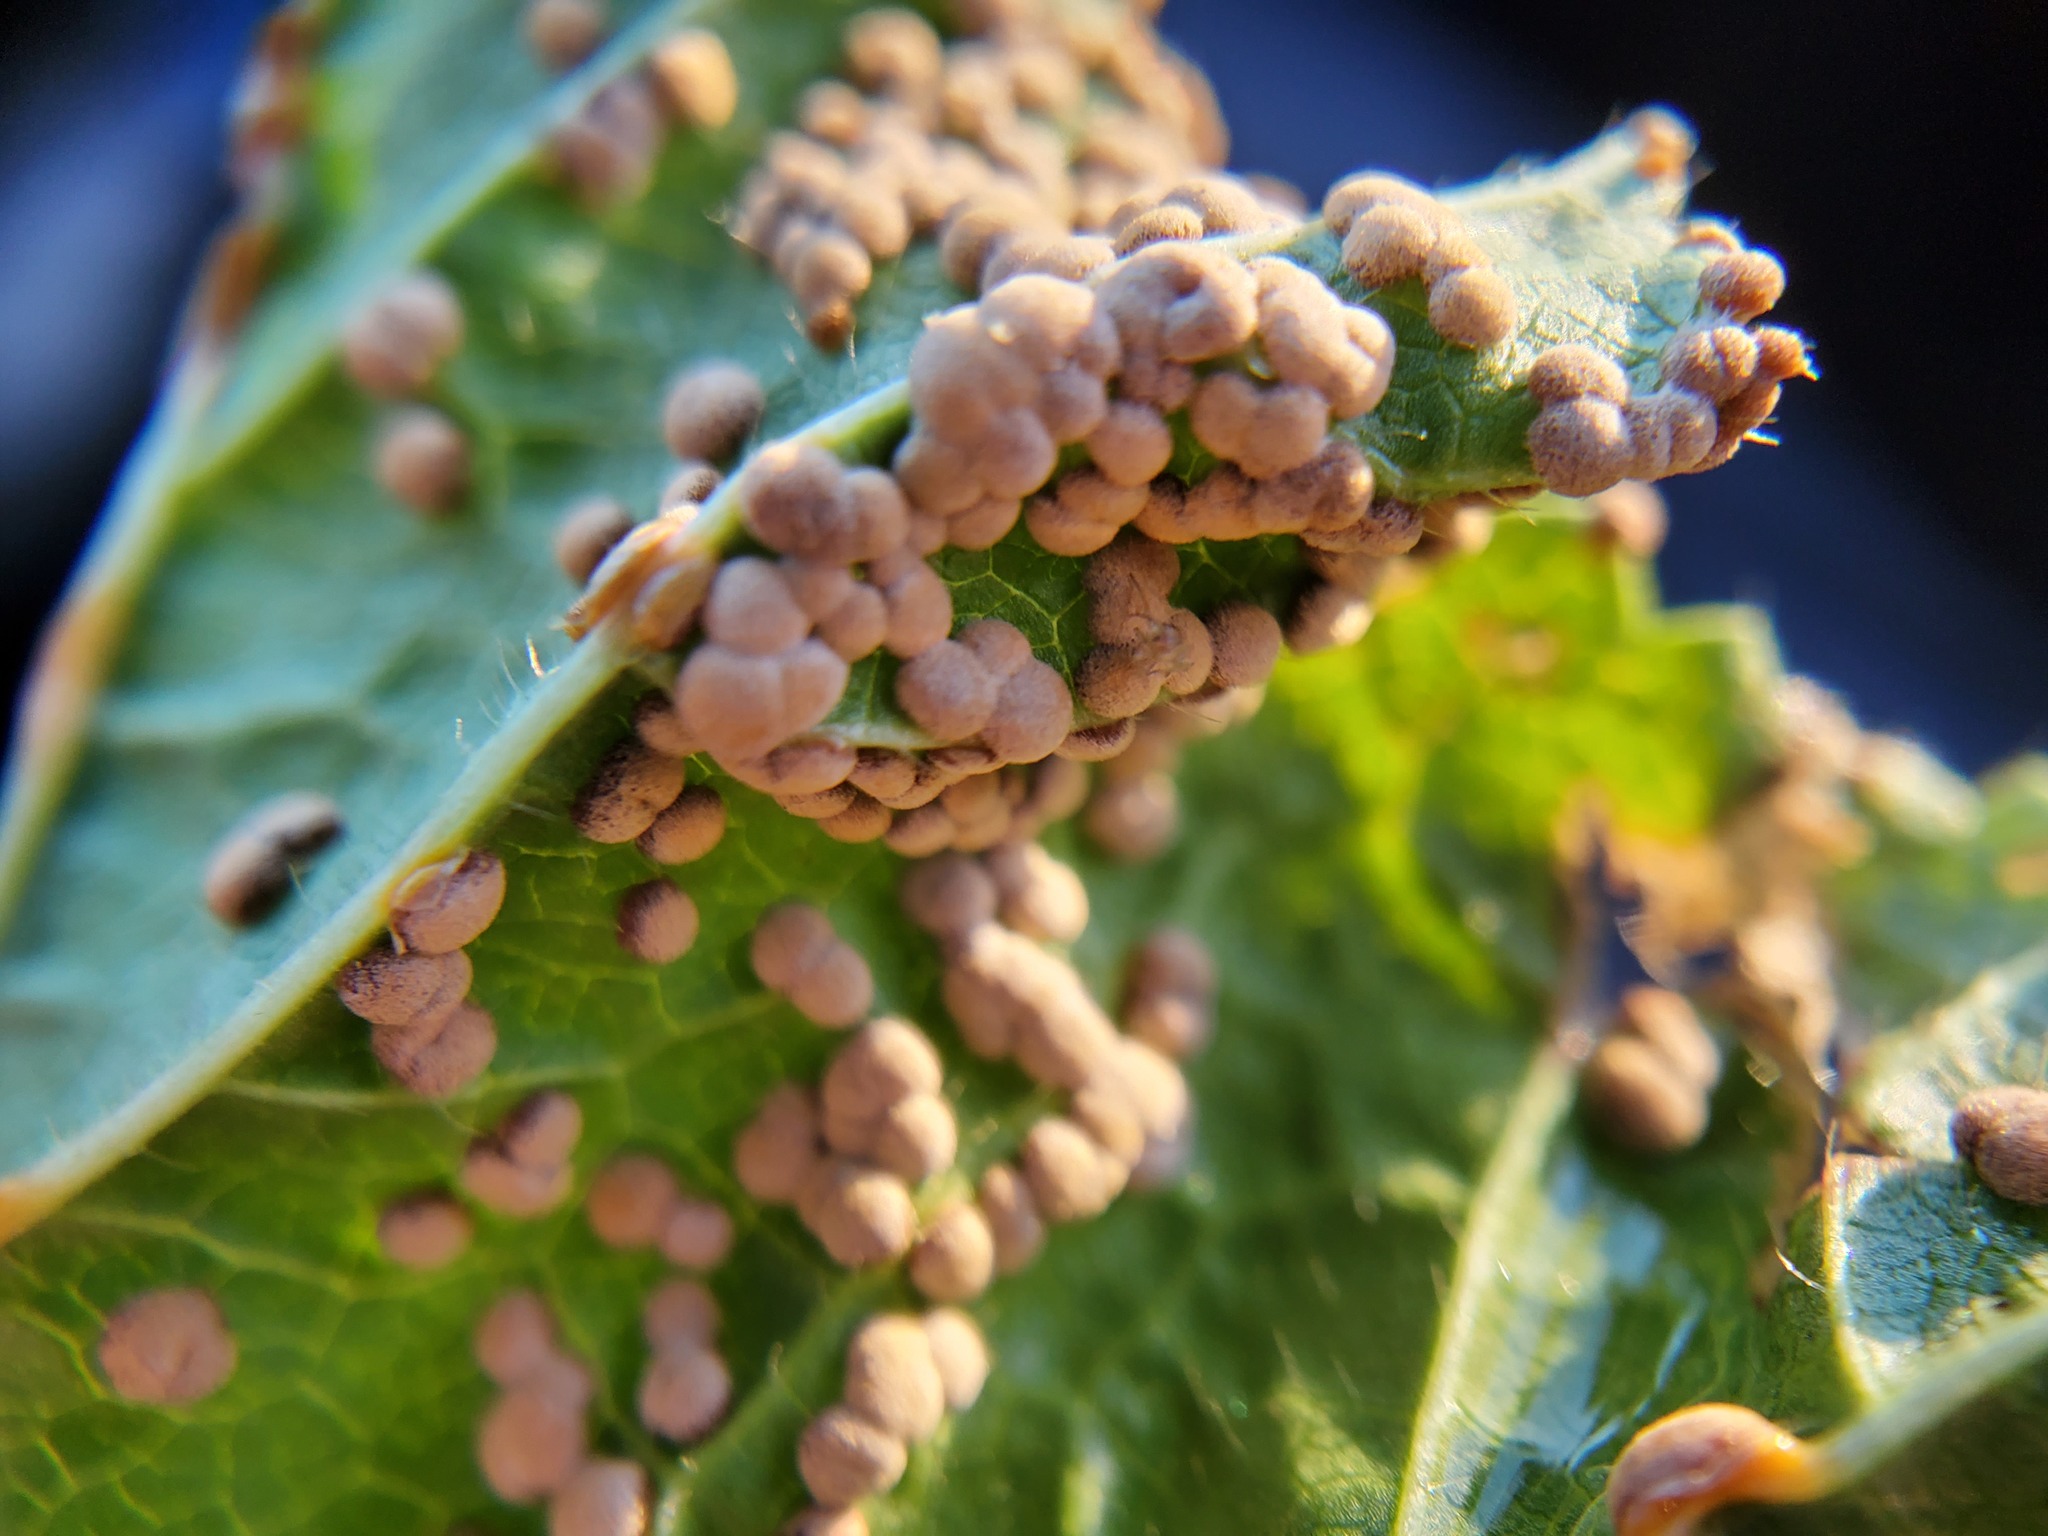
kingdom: Fungi
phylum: Basidiomycota
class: Pucciniomycetes
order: Pucciniales
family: Pucciniaceae
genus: Puccinia
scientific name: Puccinia malvacearum
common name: Hollyhock rust
